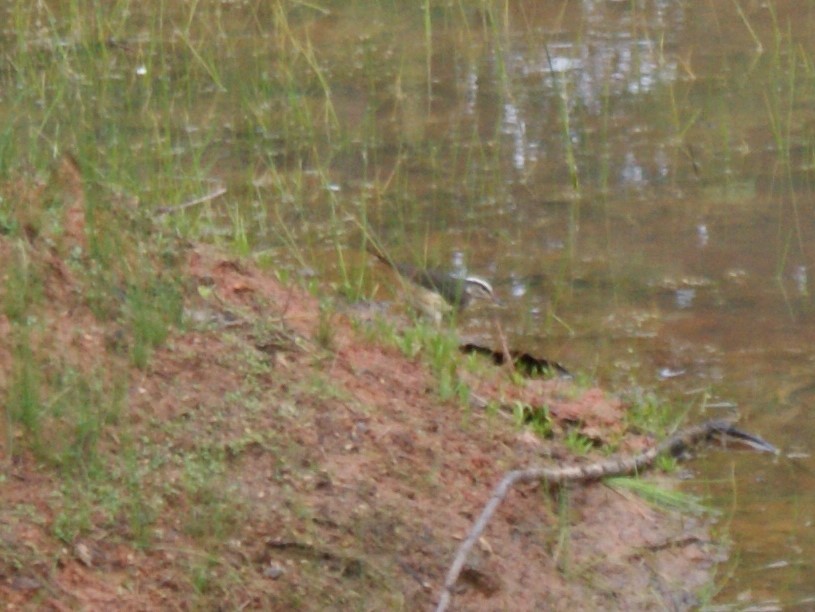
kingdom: Animalia
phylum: Chordata
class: Aves
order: Passeriformes
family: Parulidae
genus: Parkesia
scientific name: Parkesia motacilla
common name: Louisiana waterthrush
